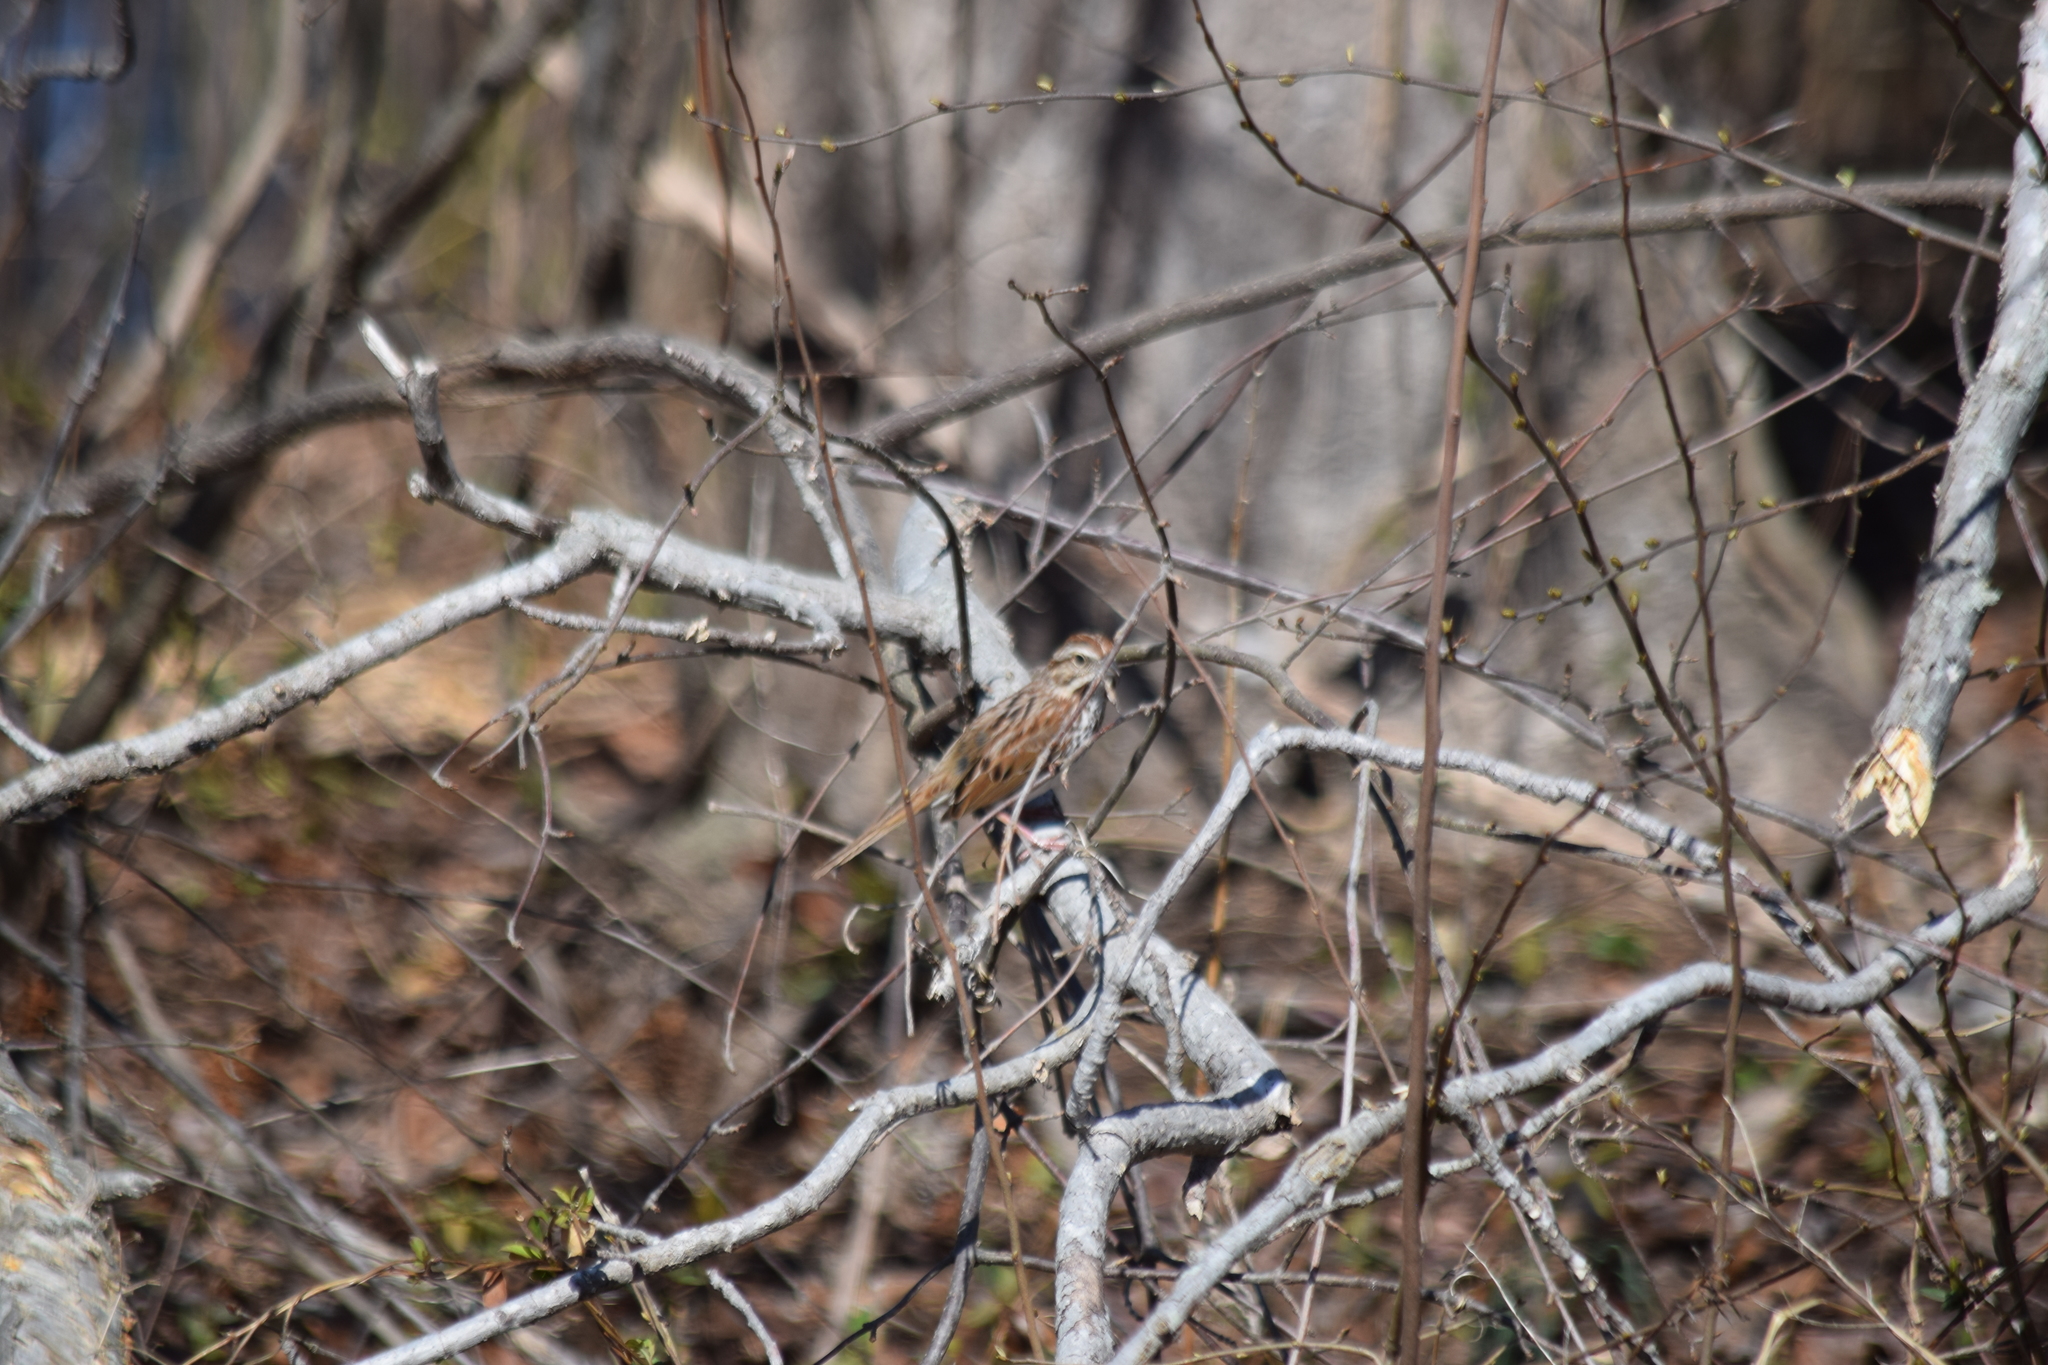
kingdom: Animalia
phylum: Chordata
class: Aves
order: Passeriformes
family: Passerellidae
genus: Melospiza
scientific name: Melospiza melodia
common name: Song sparrow
